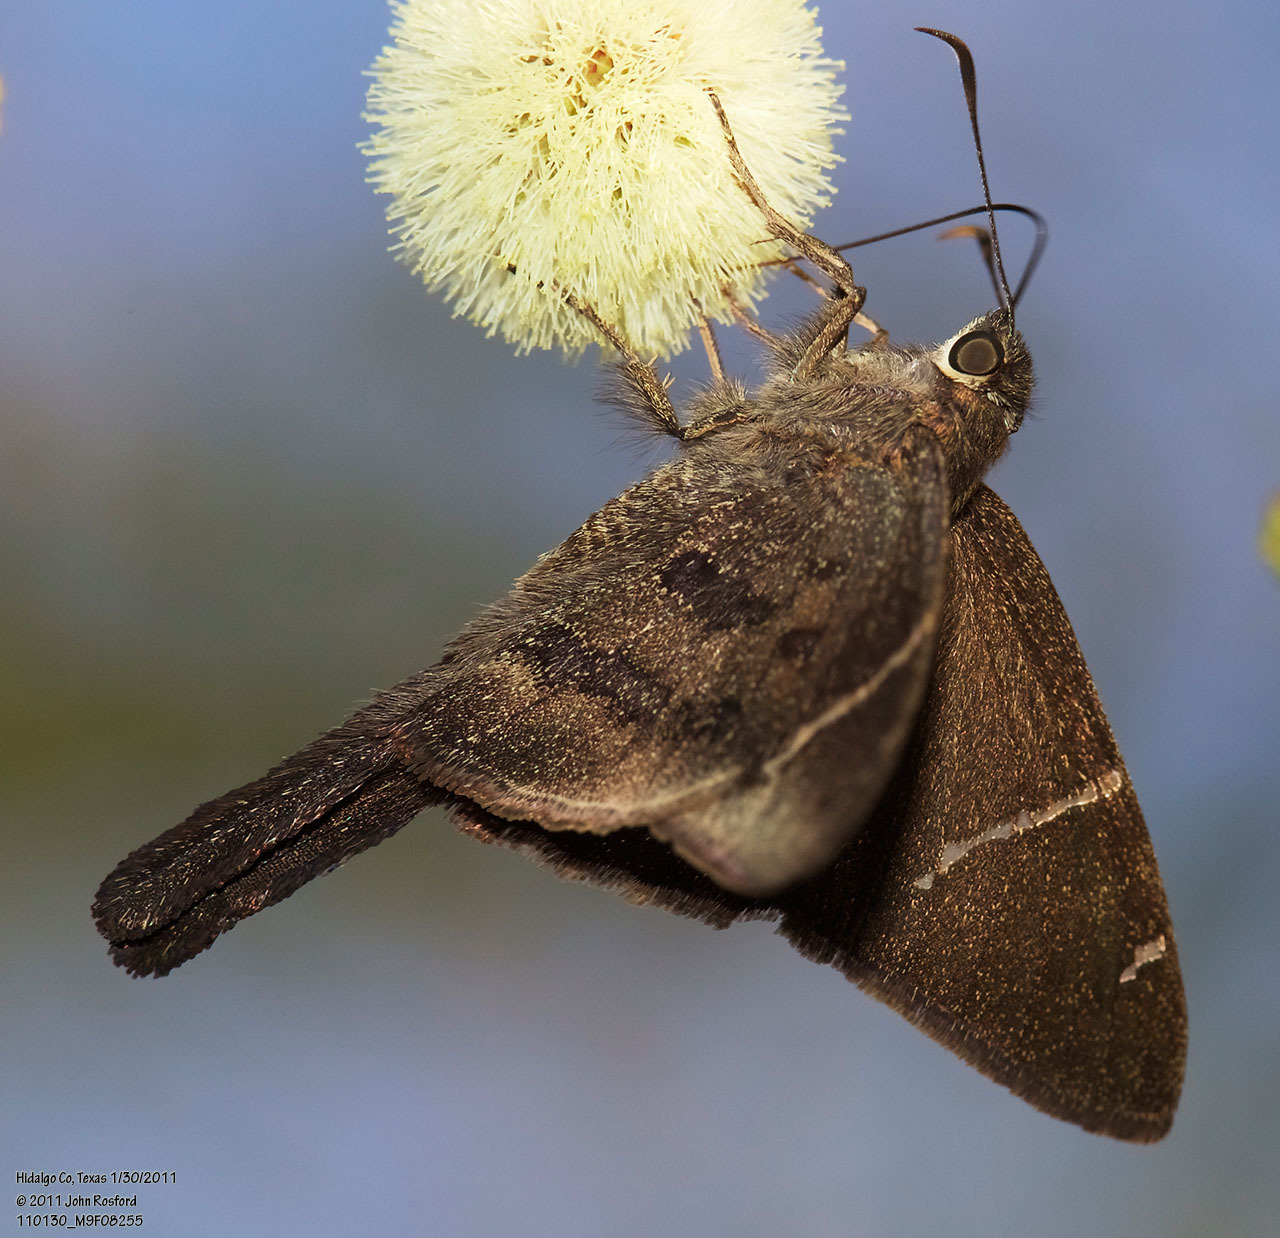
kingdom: Animalia
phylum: Arthropoda
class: Insecta
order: Lepidoptera
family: Hesperiidae
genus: Urbanus
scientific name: Urbanus procne
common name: Brown longtail
